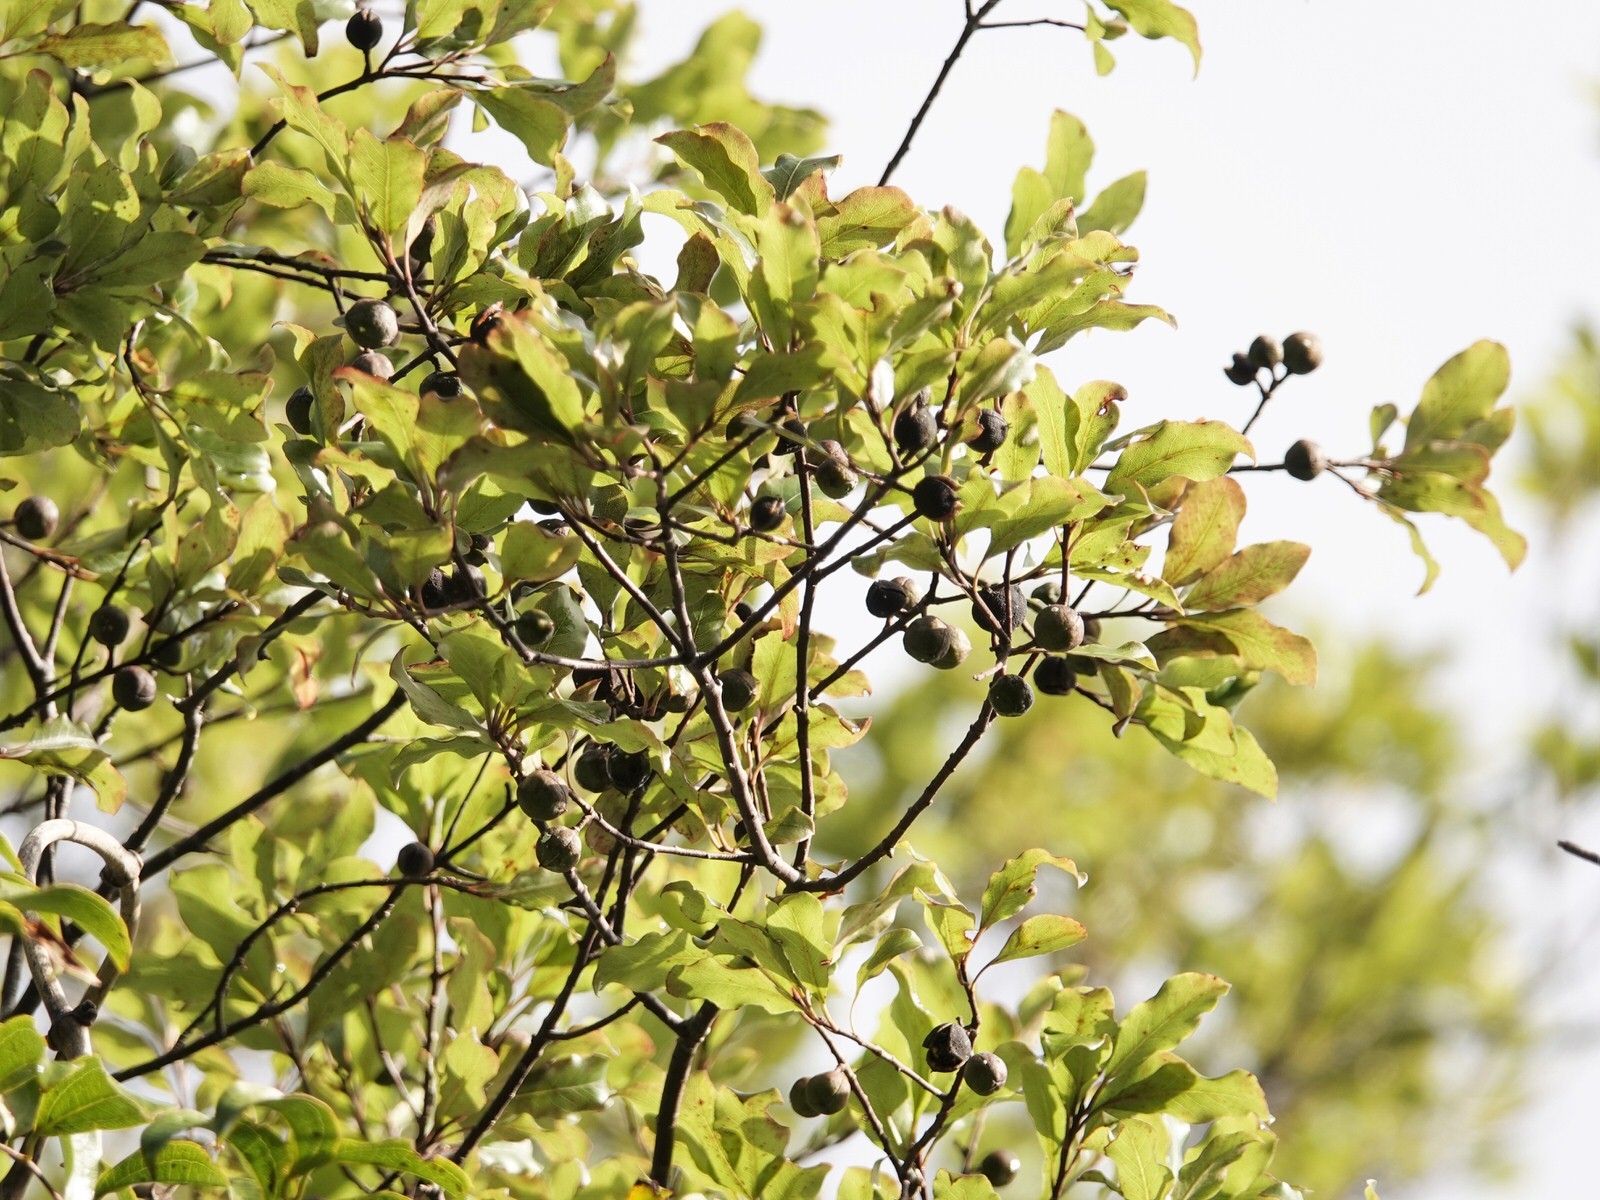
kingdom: Plantae
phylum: Tracheophyta
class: Magnoliopsida
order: Apiales
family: Pittosporaceae
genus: Pittosporum
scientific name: Pittosporum tenuifolium
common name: Kohuhu
